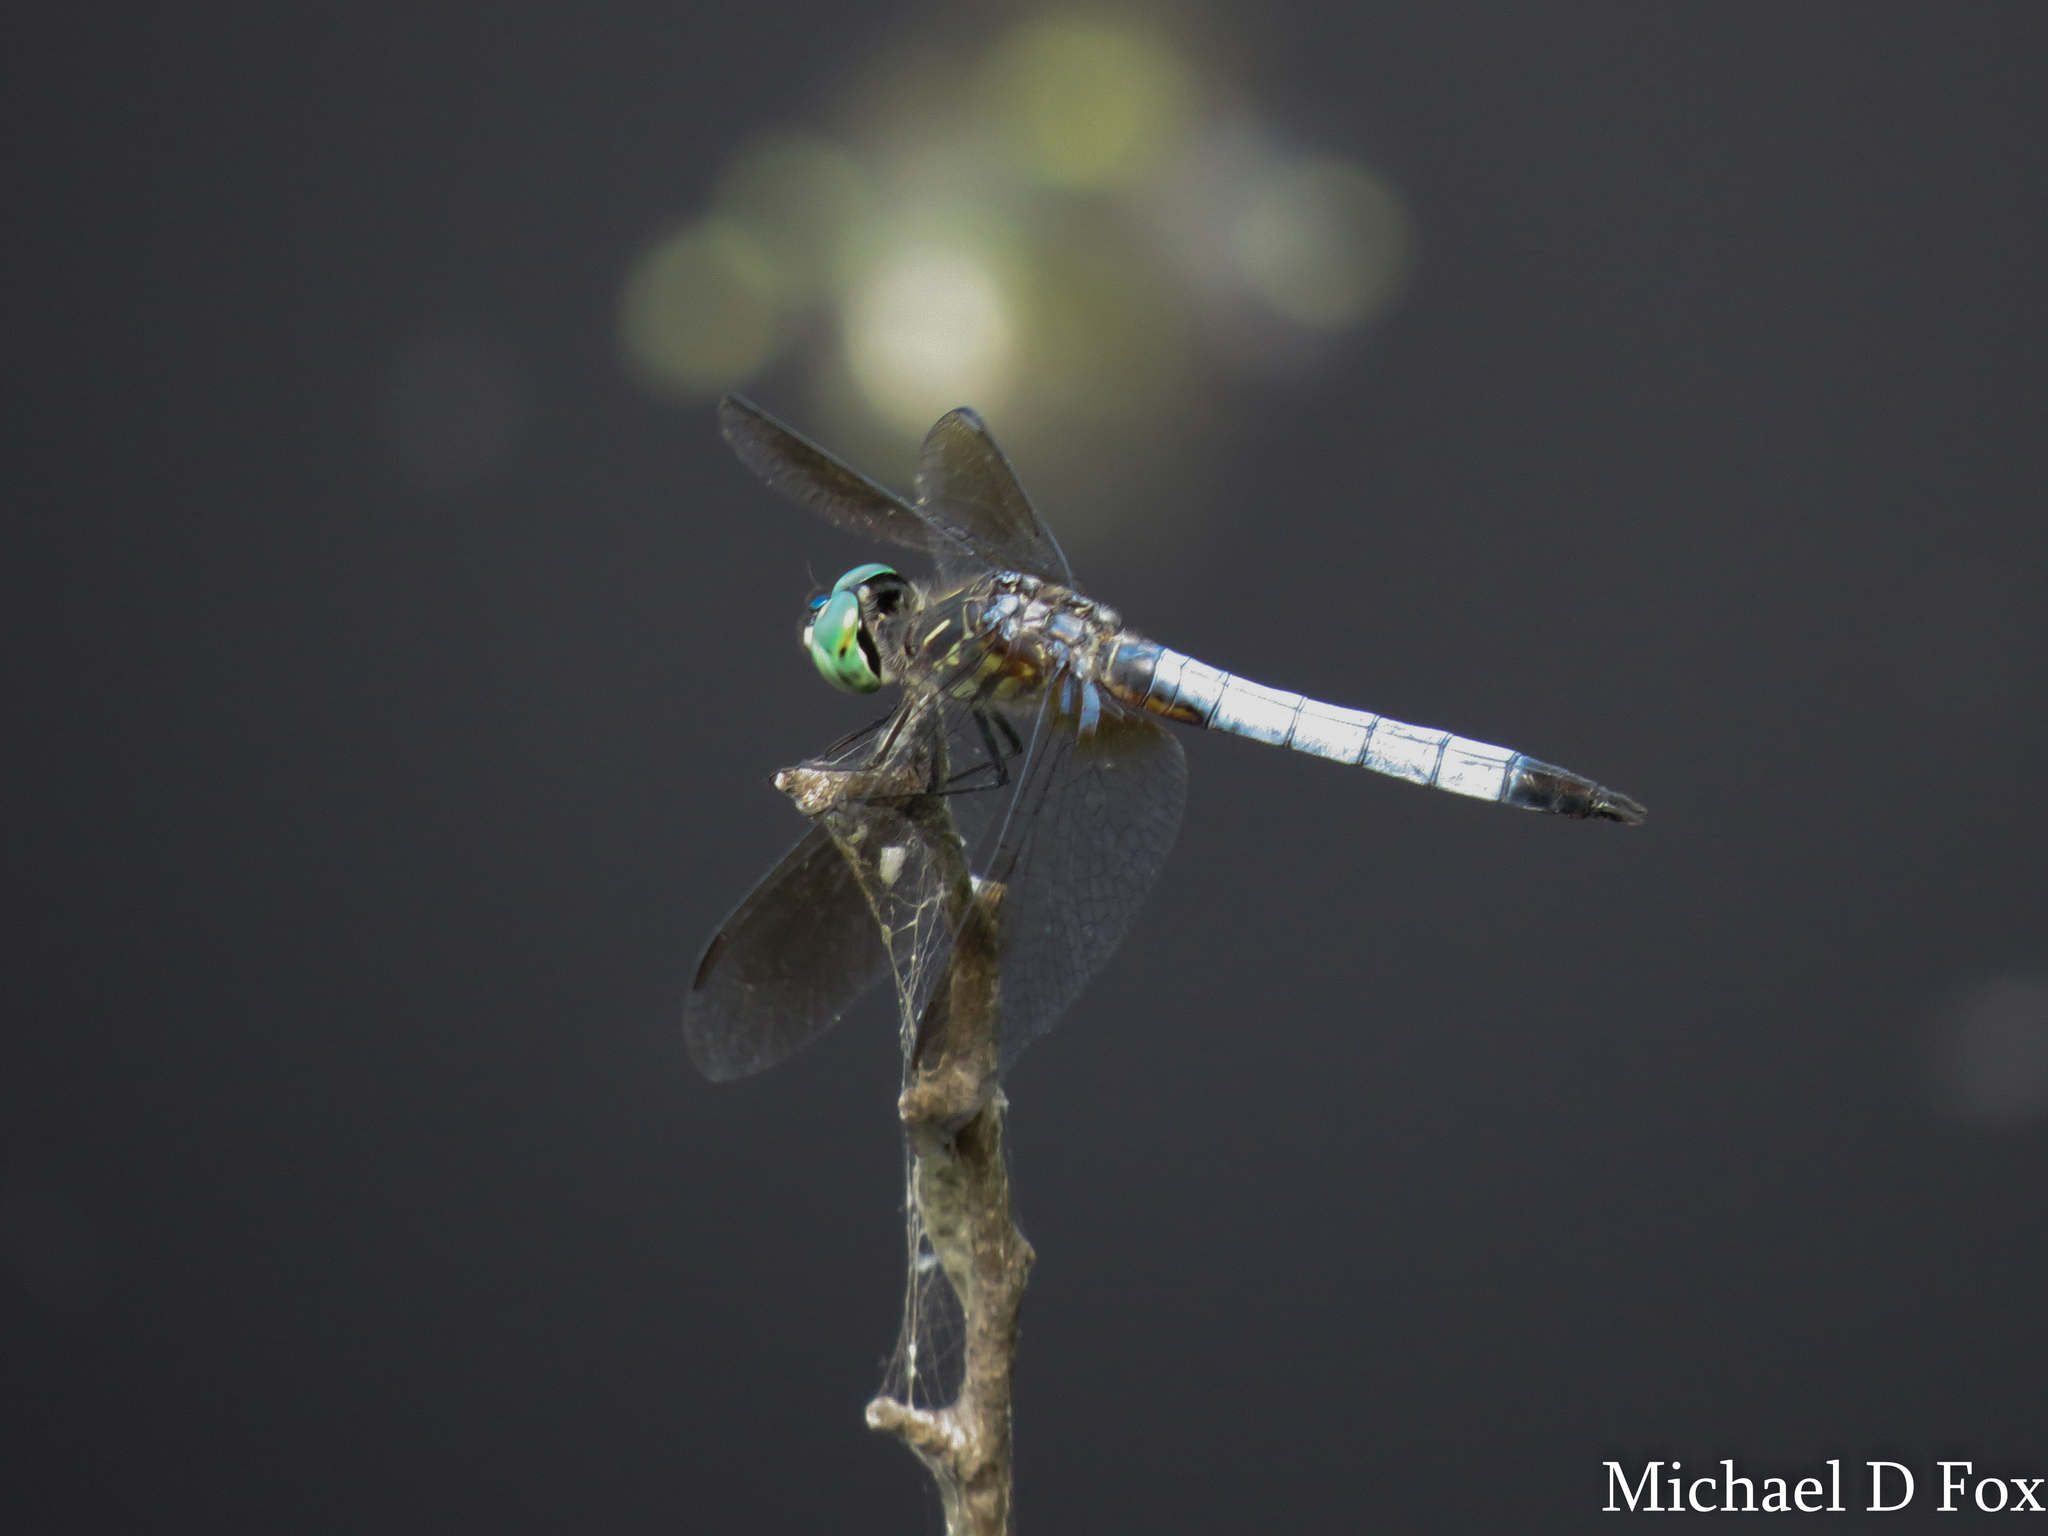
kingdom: Animalia
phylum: Arthropoda
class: Insecta
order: Odonata
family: Libellulidae
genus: Pachydiplax
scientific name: Pachydiplax longipennis
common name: Blue dasher
